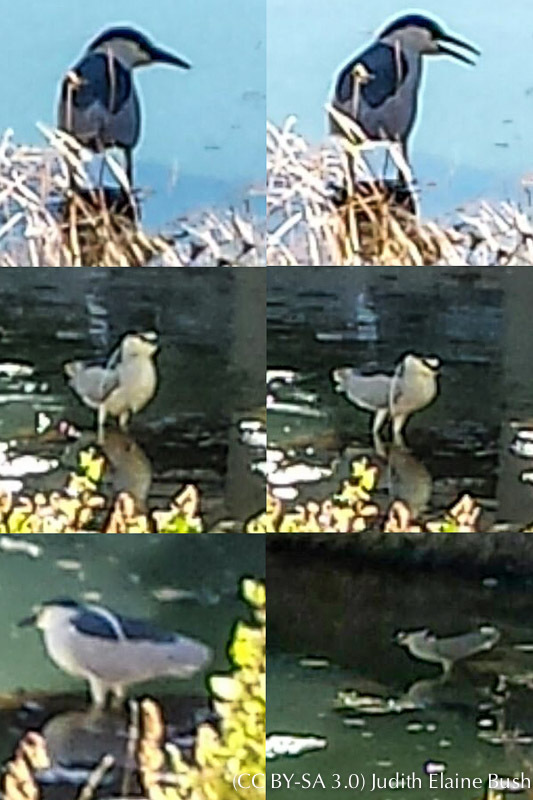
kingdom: Animalia
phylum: Chordata
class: Aves
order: Pelecaniformes
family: Ardeidae
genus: Nycticorax
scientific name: Nycticorax nycticorax
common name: Black-crowned night heron
